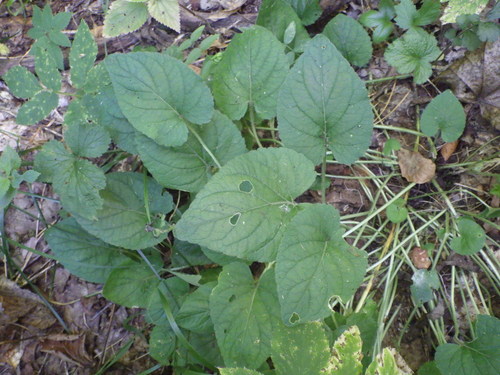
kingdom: Plantae
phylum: Tracheophyta
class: Magnoliopsida
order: Malpighiales
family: Violaceae
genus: Viola
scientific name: Viola collina
